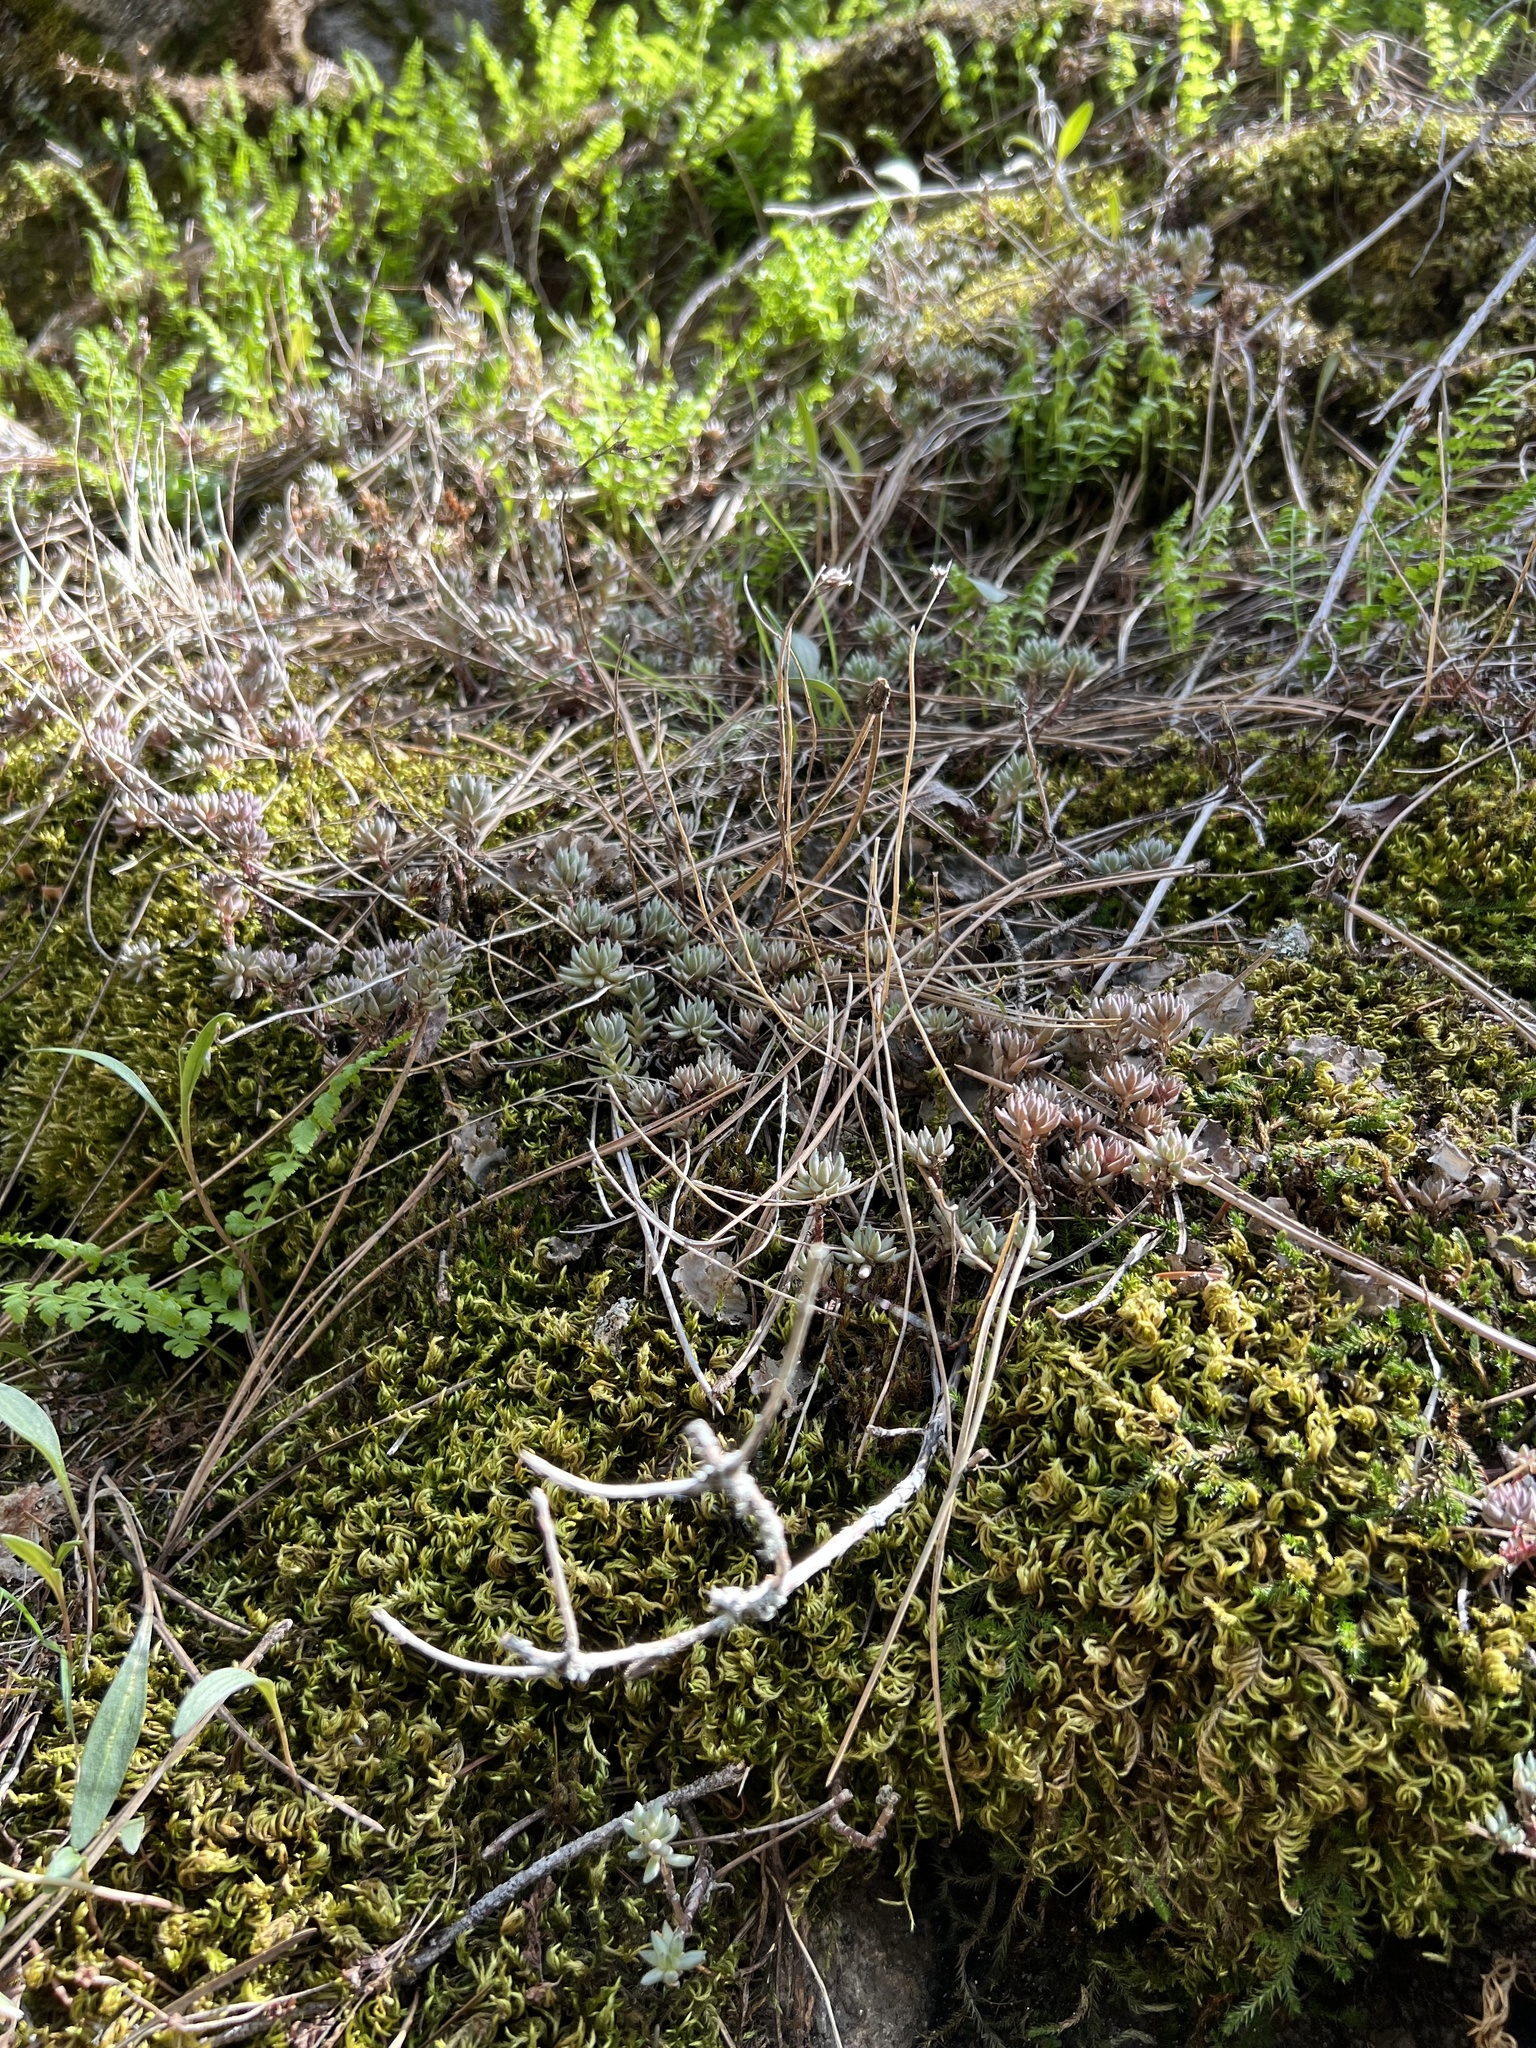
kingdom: Plantae
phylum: Tracheophyta
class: Magnoliopsida
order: Saxifragales
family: Crassulaceae
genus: Sedum
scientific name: Sedum lanceolatum
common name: Common stonecrop
